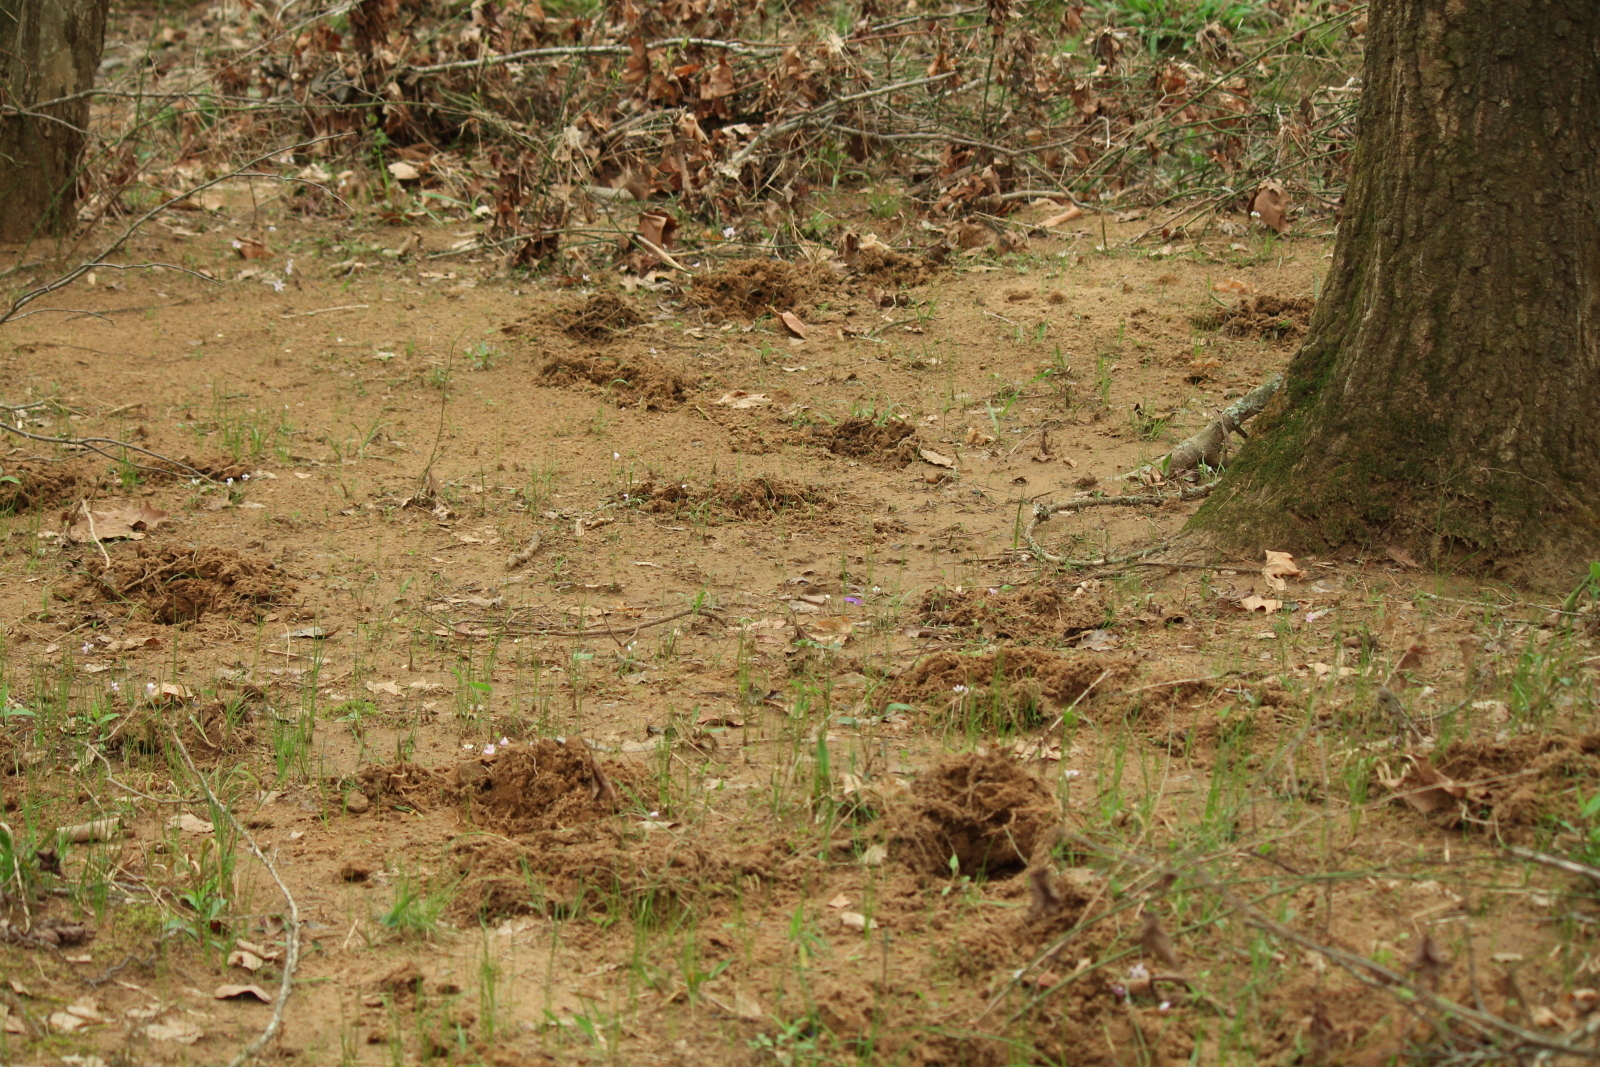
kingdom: Animalia
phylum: Chordata
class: Mammalia
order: Artiodactyla
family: Suidae
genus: Sus
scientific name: Sus scrofa
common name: Wild boar
